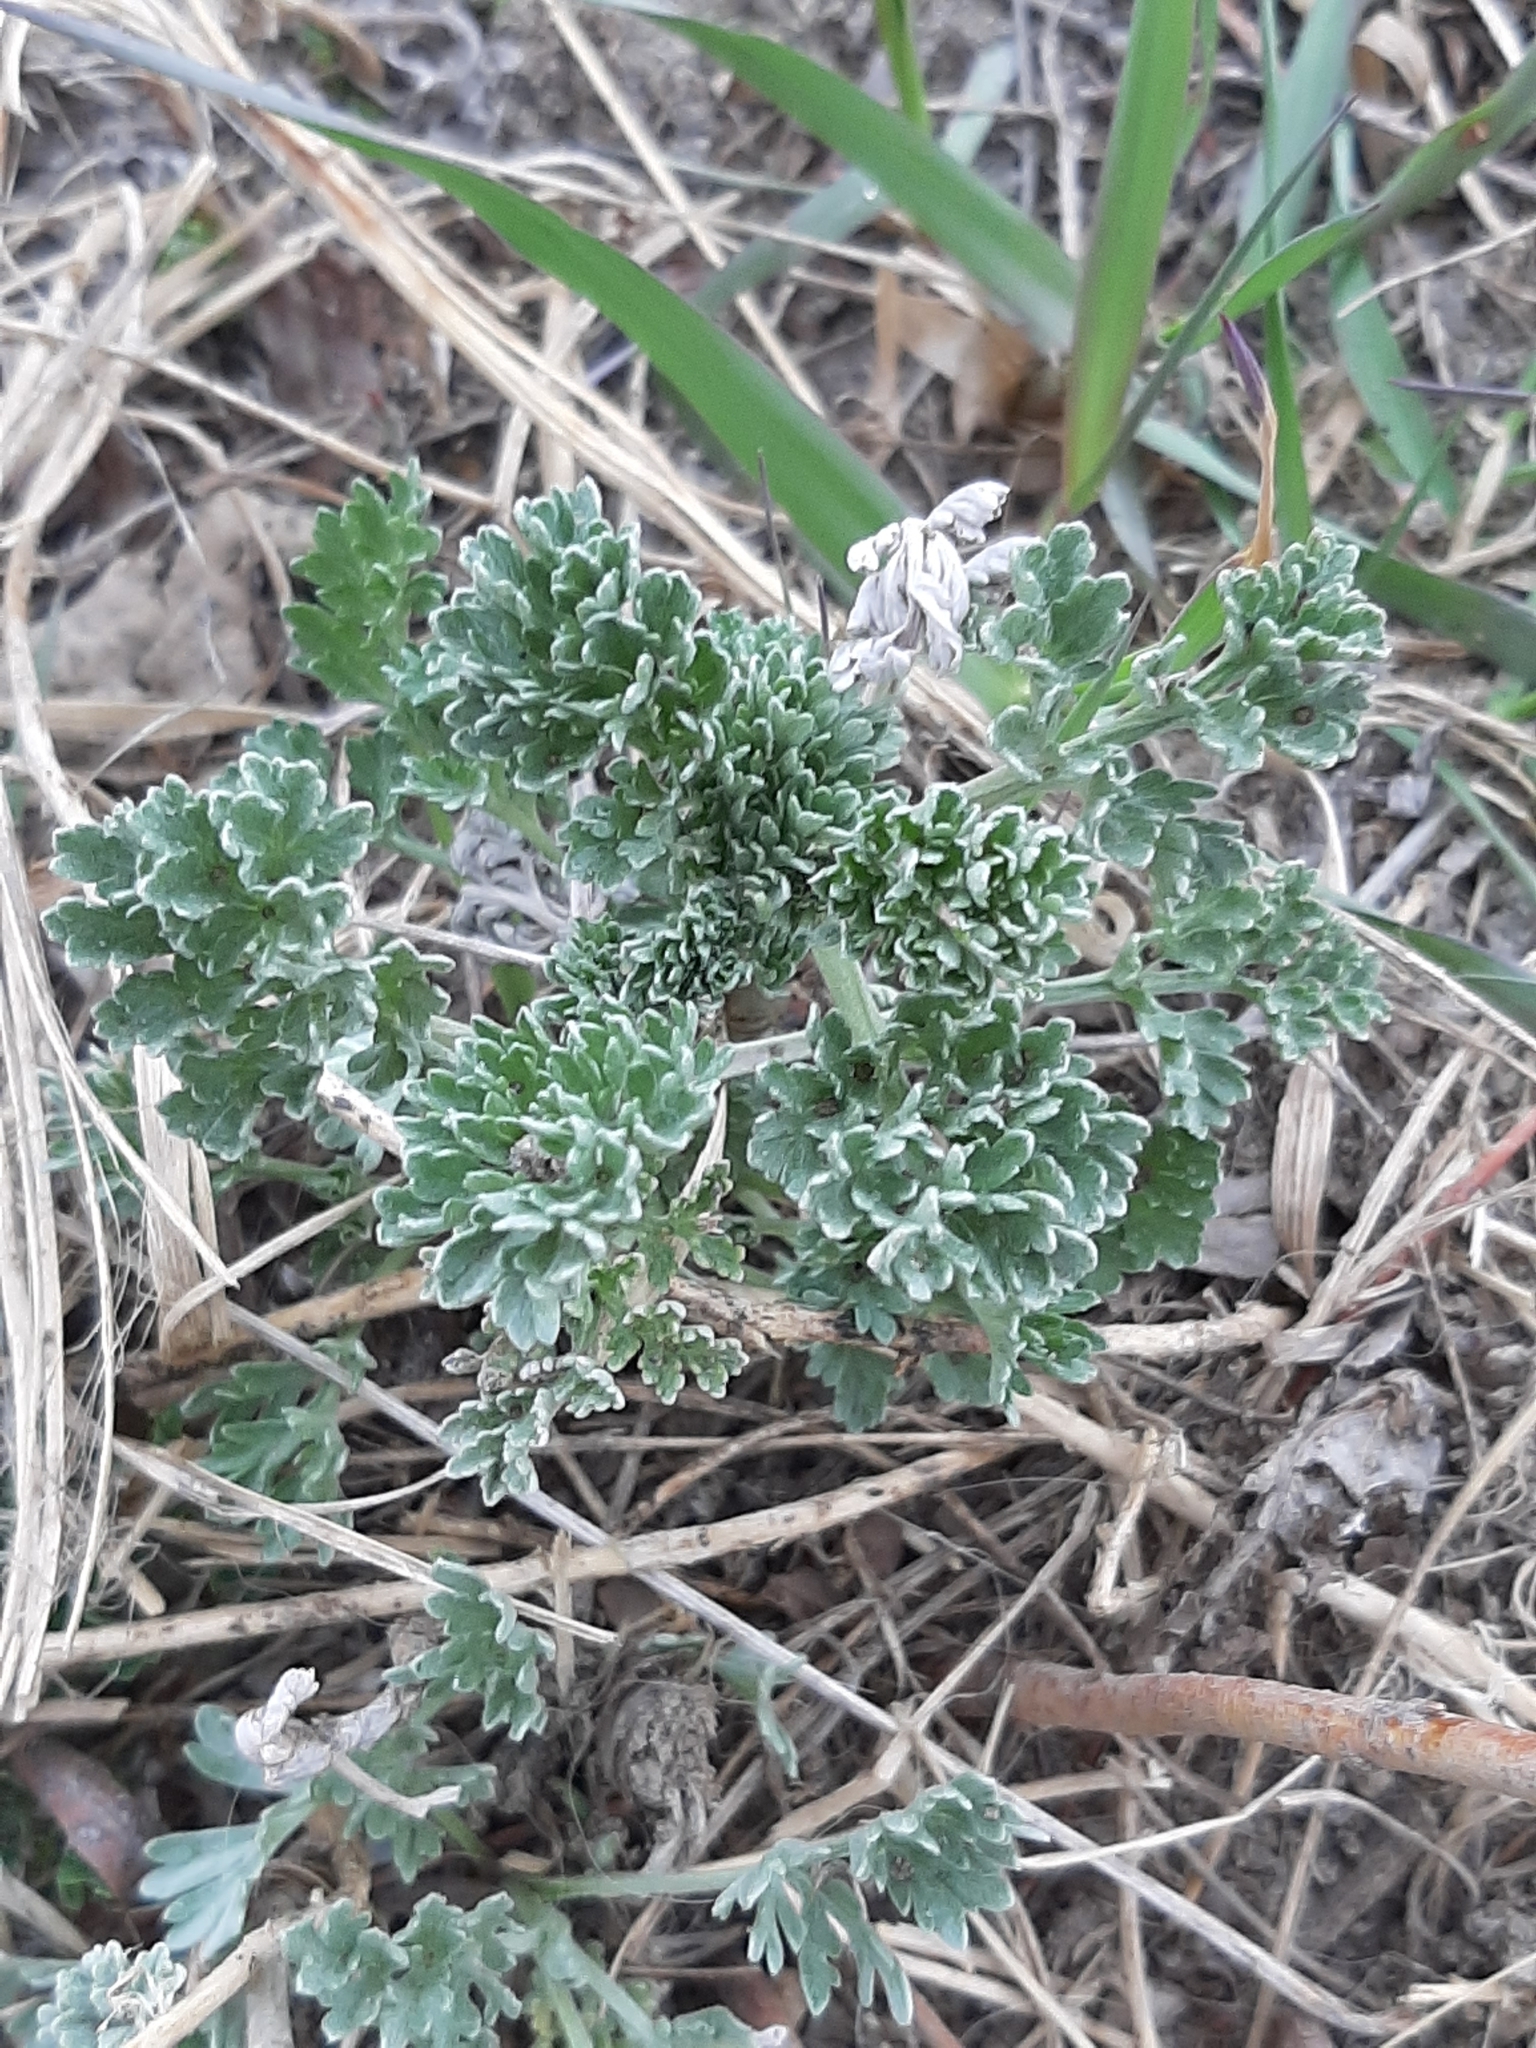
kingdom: Plantae
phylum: Tracheophyta
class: Magnoliopsida
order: Asterales
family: Asteraceae
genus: Artemisia
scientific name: Artemisia absinthium
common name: Wormwood
